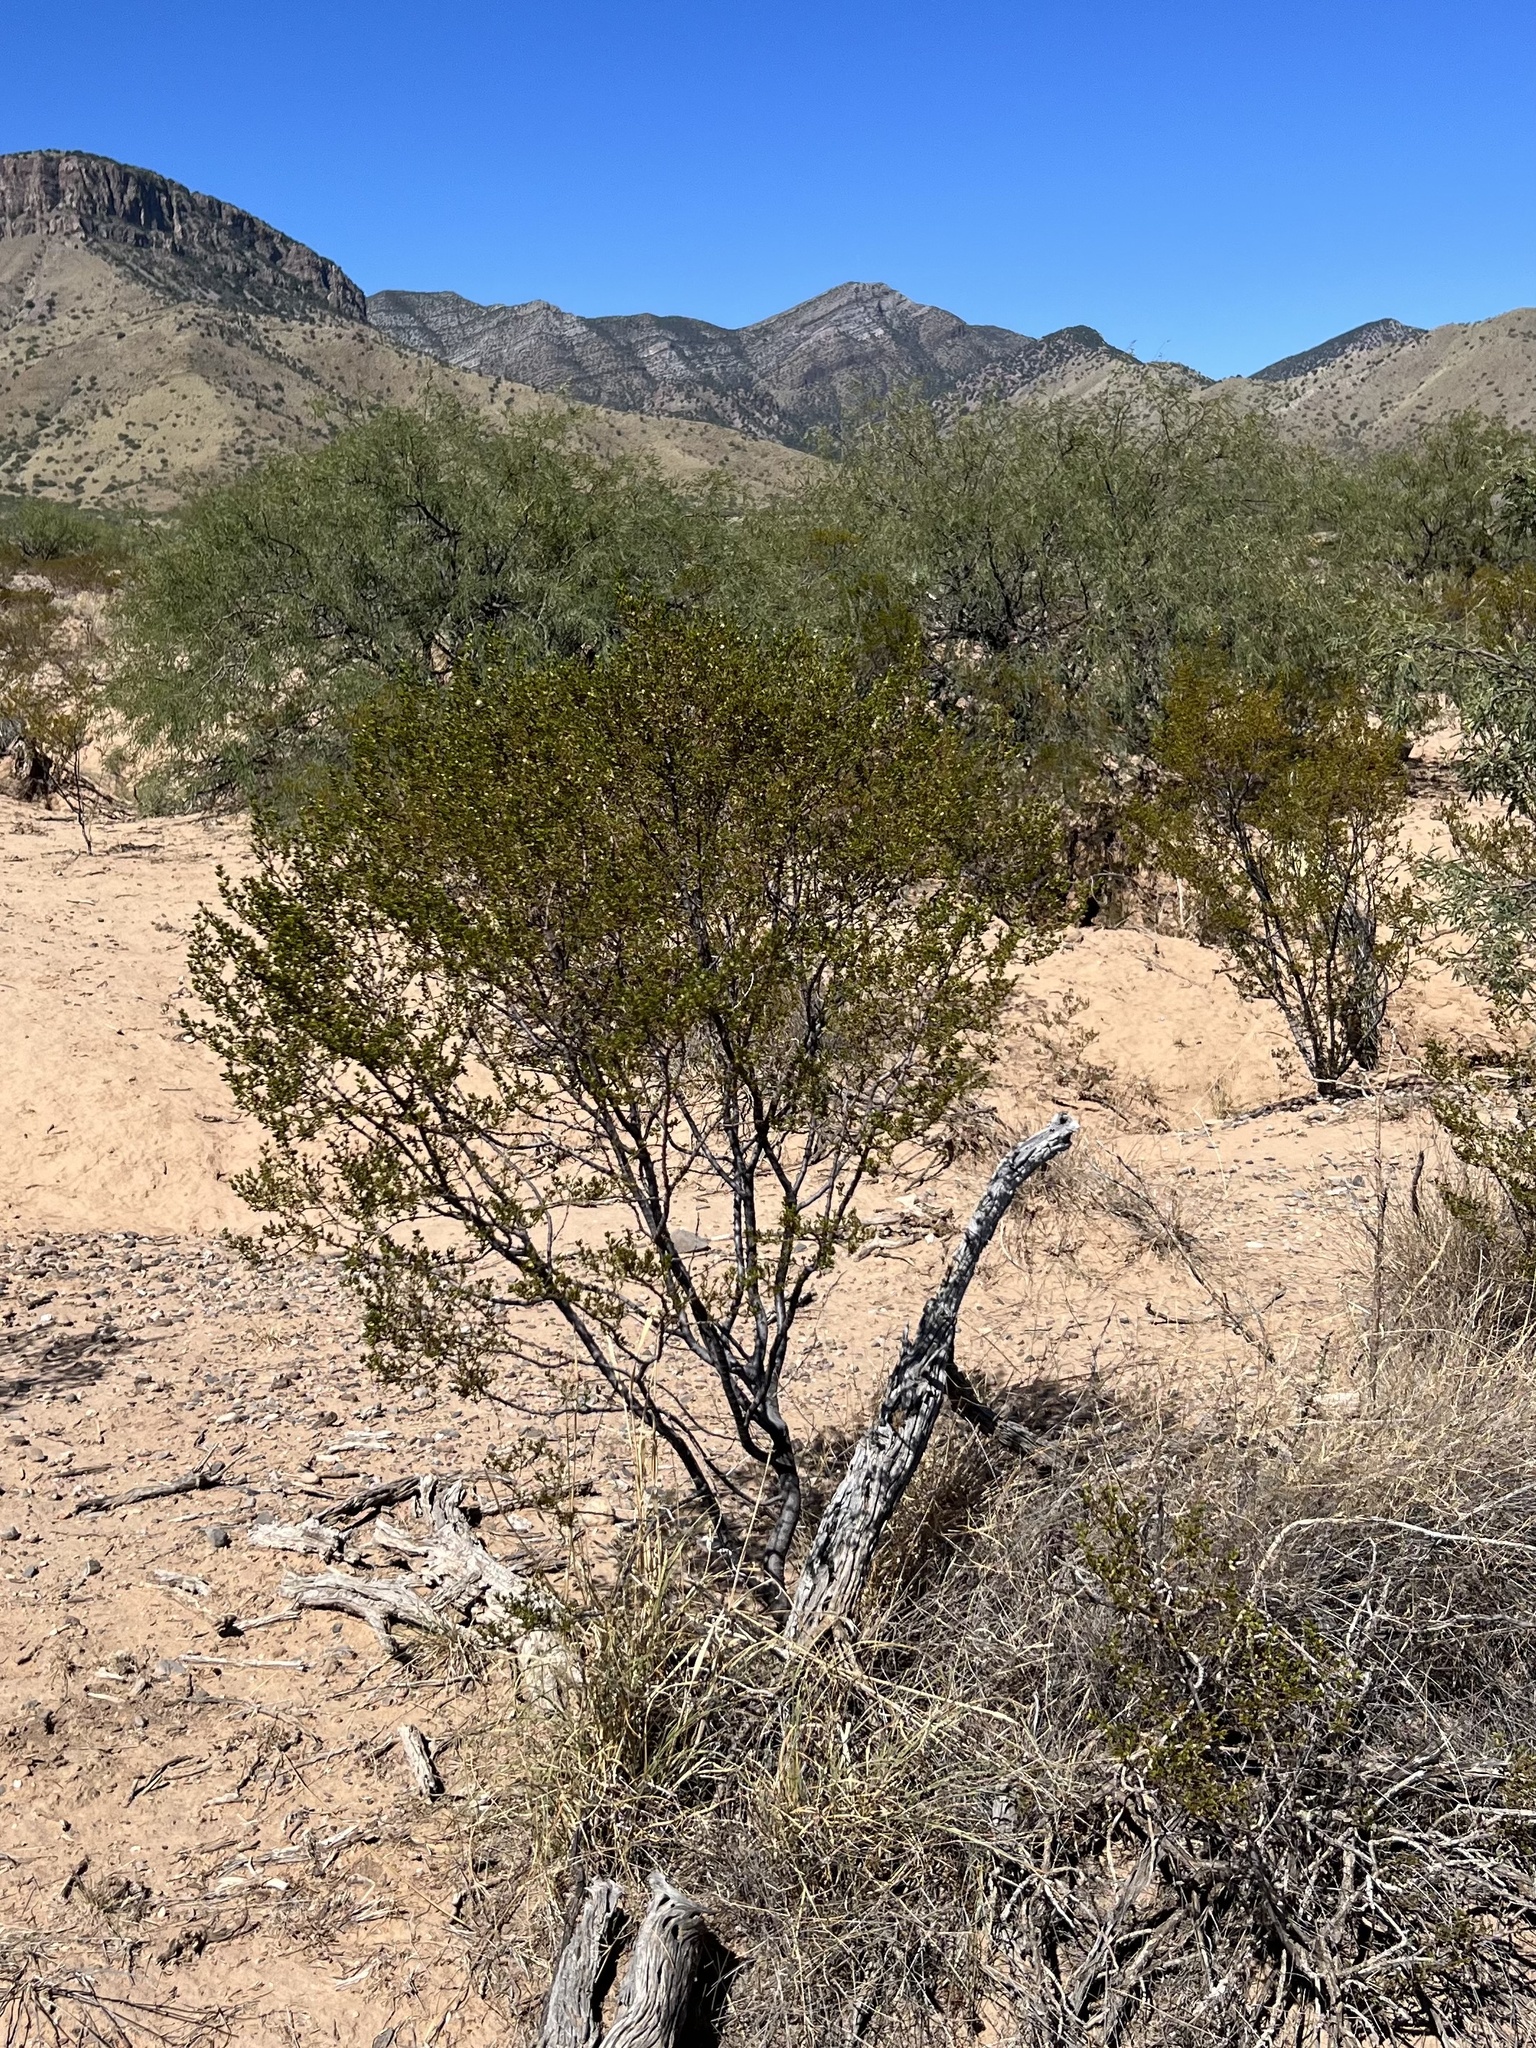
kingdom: Plantae
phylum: Tracheophyta
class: Magnoliopsida
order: Zygophyllales
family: Zygophyllaceae
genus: Larrea
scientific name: Larrea tridentata
